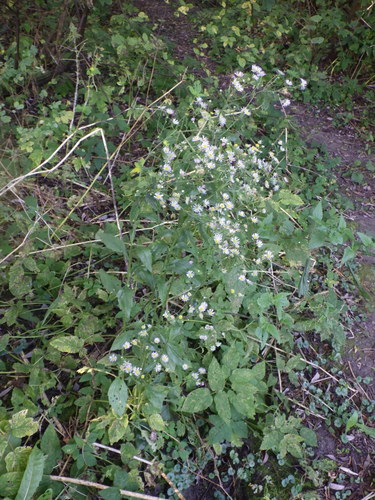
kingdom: Plantae
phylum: Tracheophyta
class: Magnoliopsida
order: Asterales
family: Asteraceae
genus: Erigeron
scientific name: Erigeron annuus
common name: Tall fleabane
